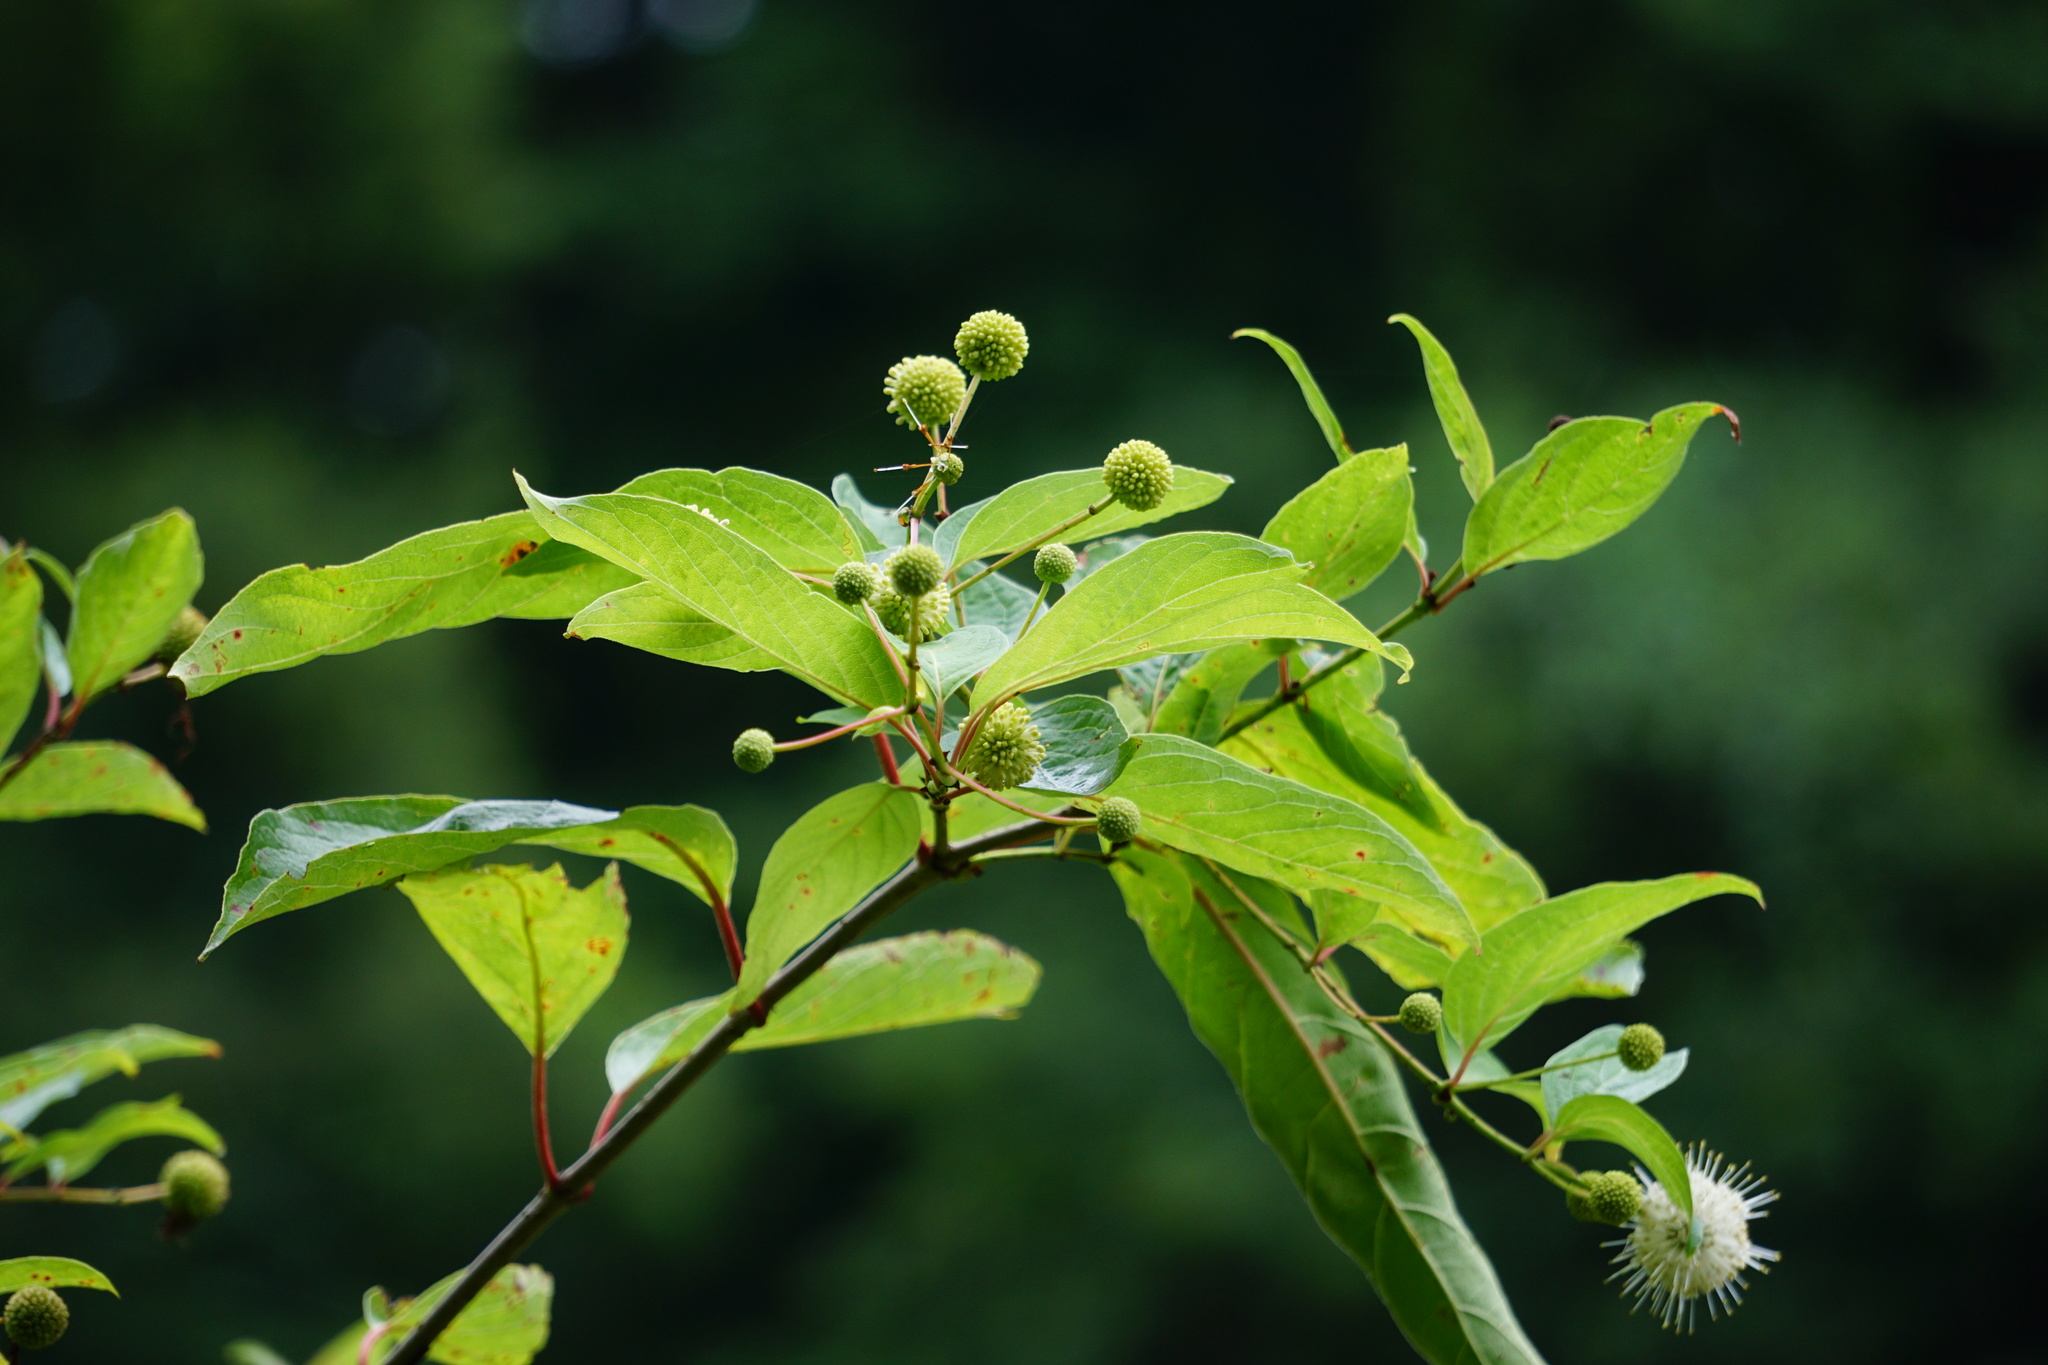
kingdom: Plantae
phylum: Tracheophyta
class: Magnoliopsida
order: Gentianales
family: Rubiaceae
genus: Cephalanthus
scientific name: Cephalanthus occidentalis
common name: Button-willow
